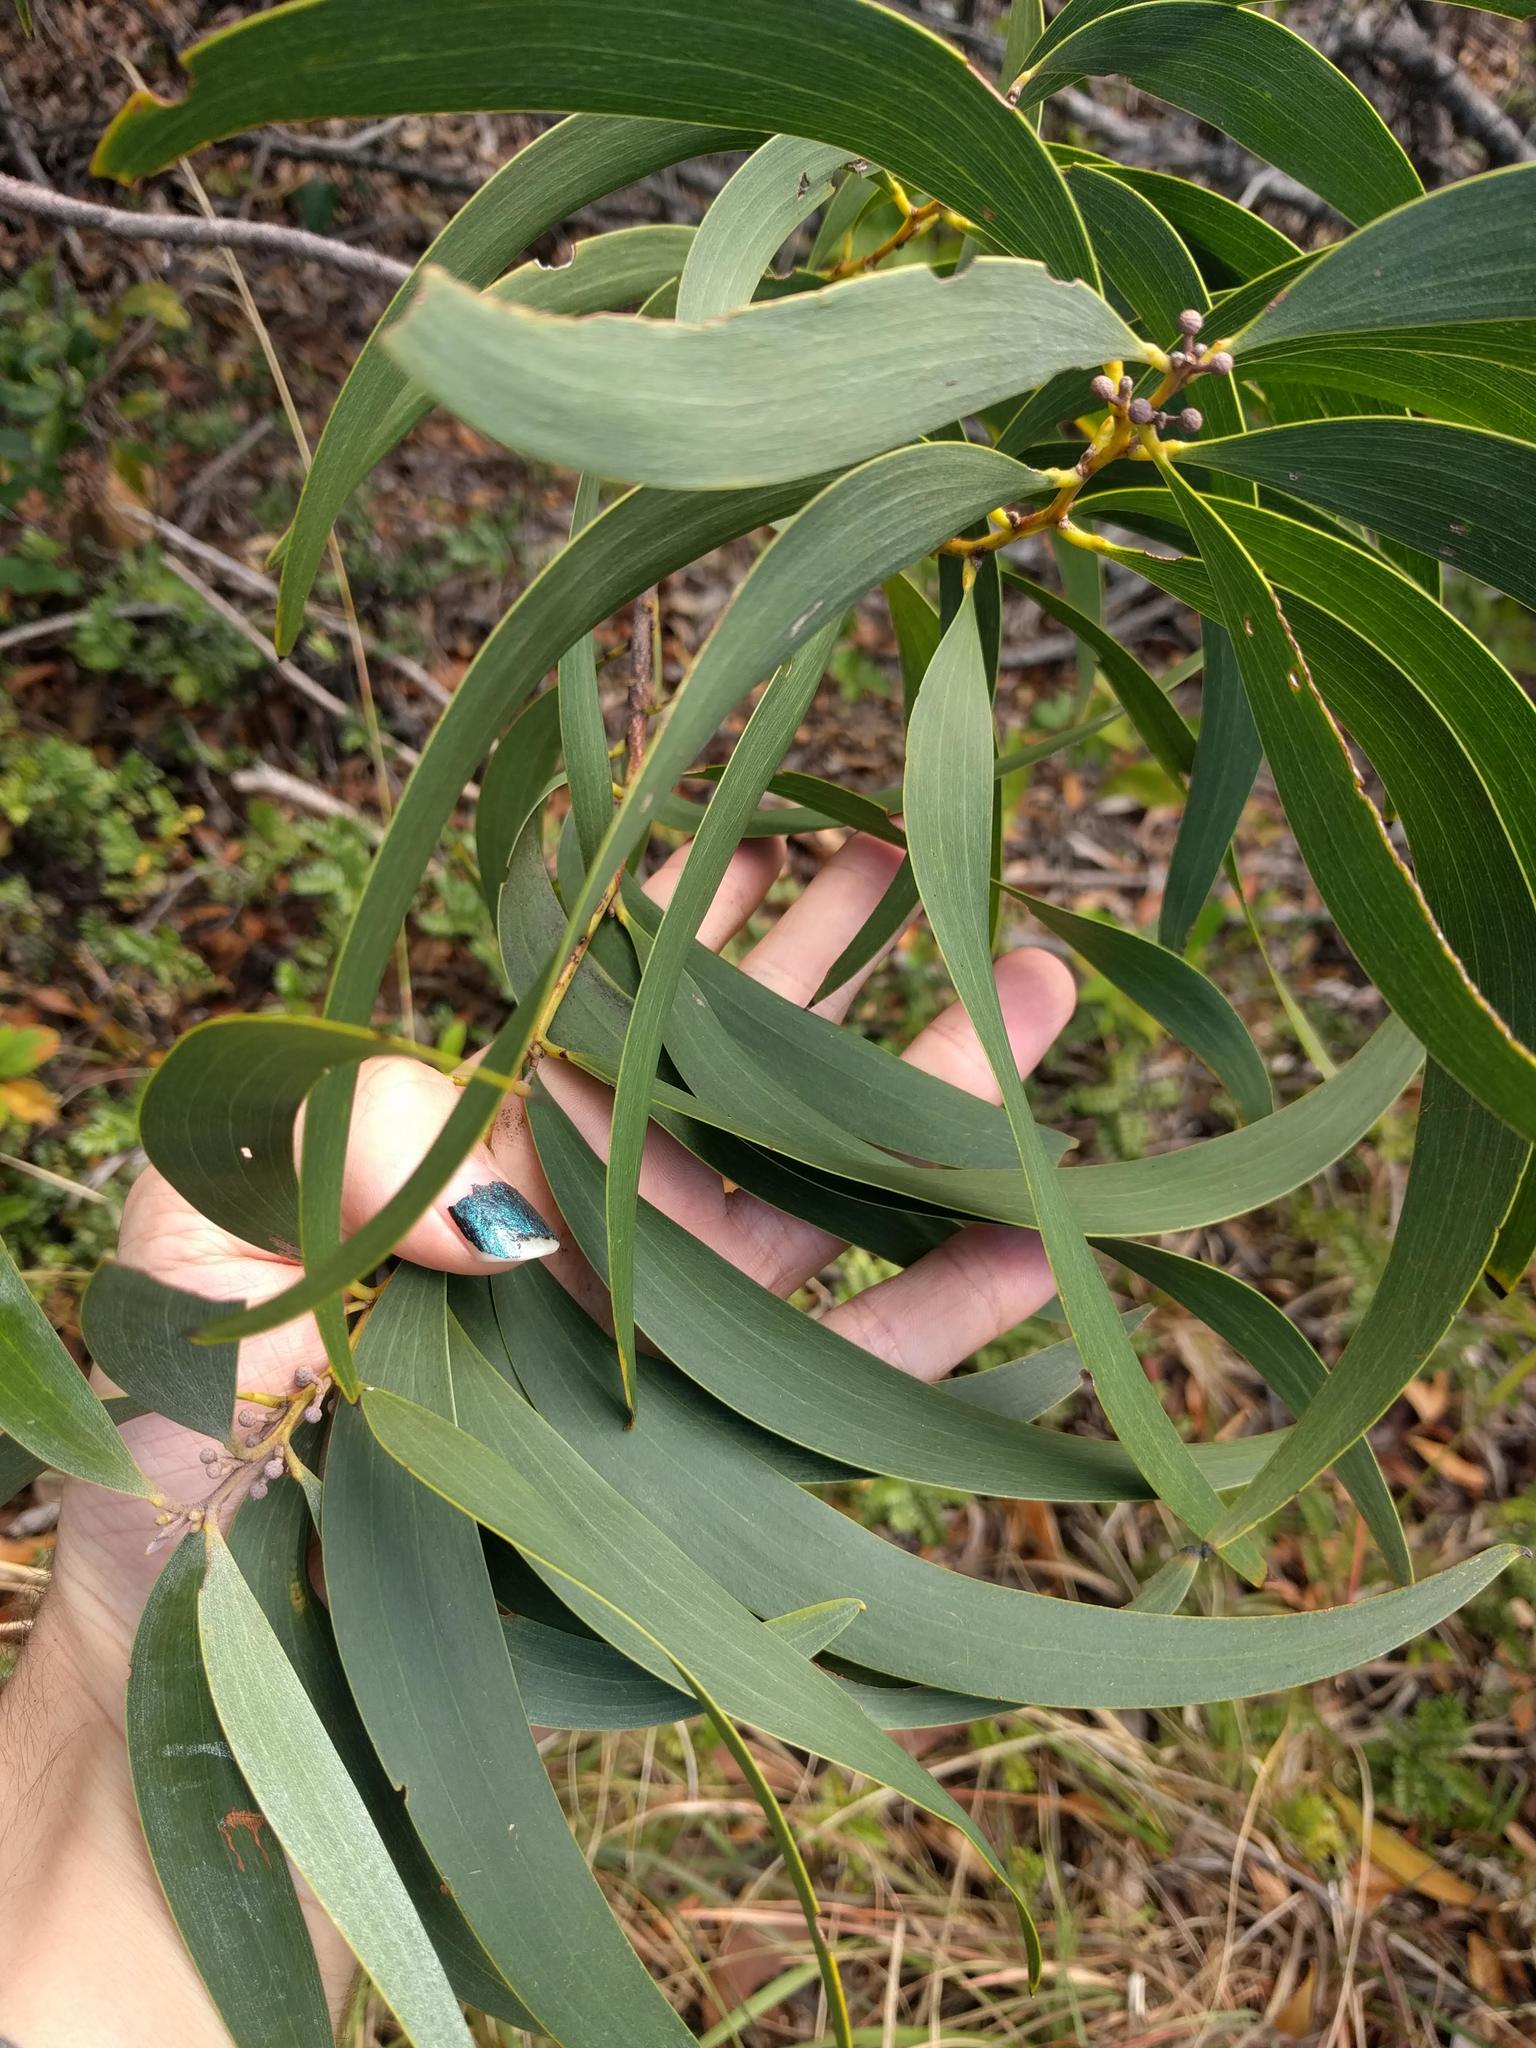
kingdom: Plantae
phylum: Tracheophyta
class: Magnoliopsida
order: Fabales
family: Fabaceae
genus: Acacia
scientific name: Acacia koa
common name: Gray koa
